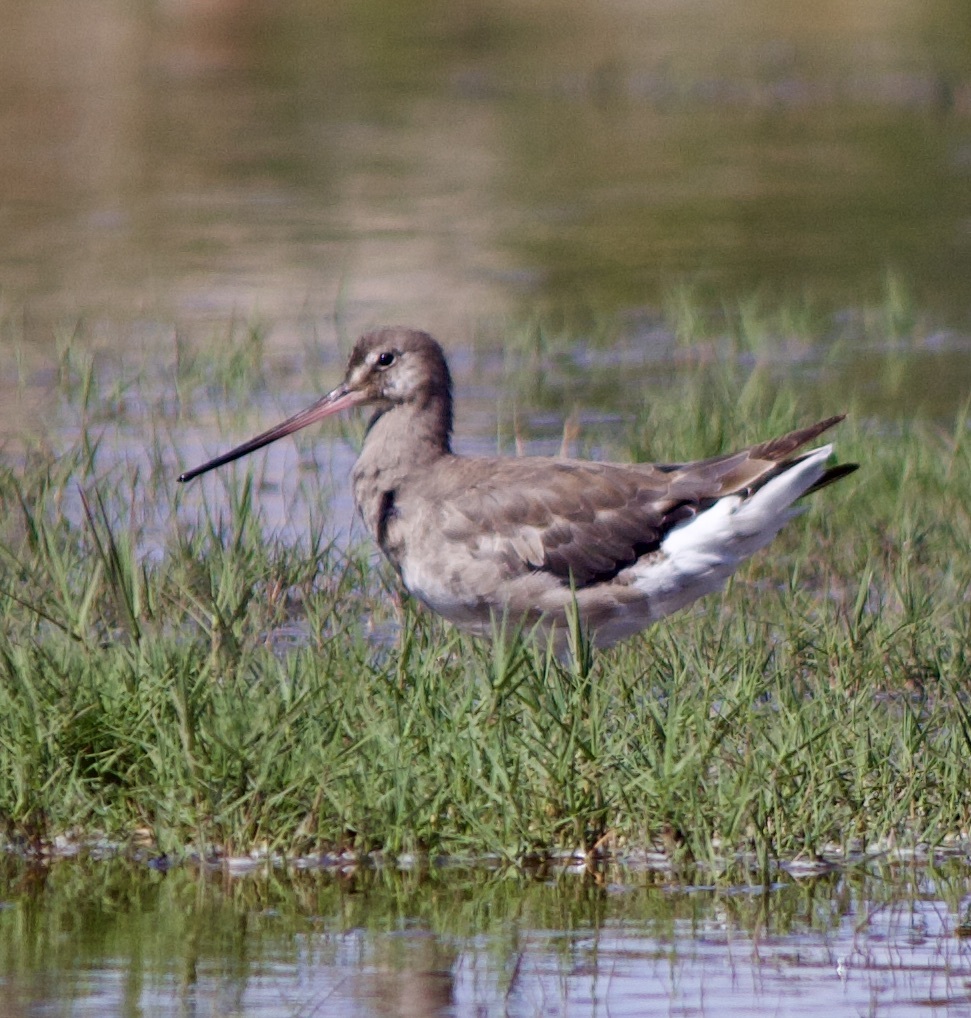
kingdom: Animalia
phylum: Chordata
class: Aves
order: Charadriiformes
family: Scolopacidae
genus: Limosa
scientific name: Limosa haemastica
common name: Hudsonian godwit
